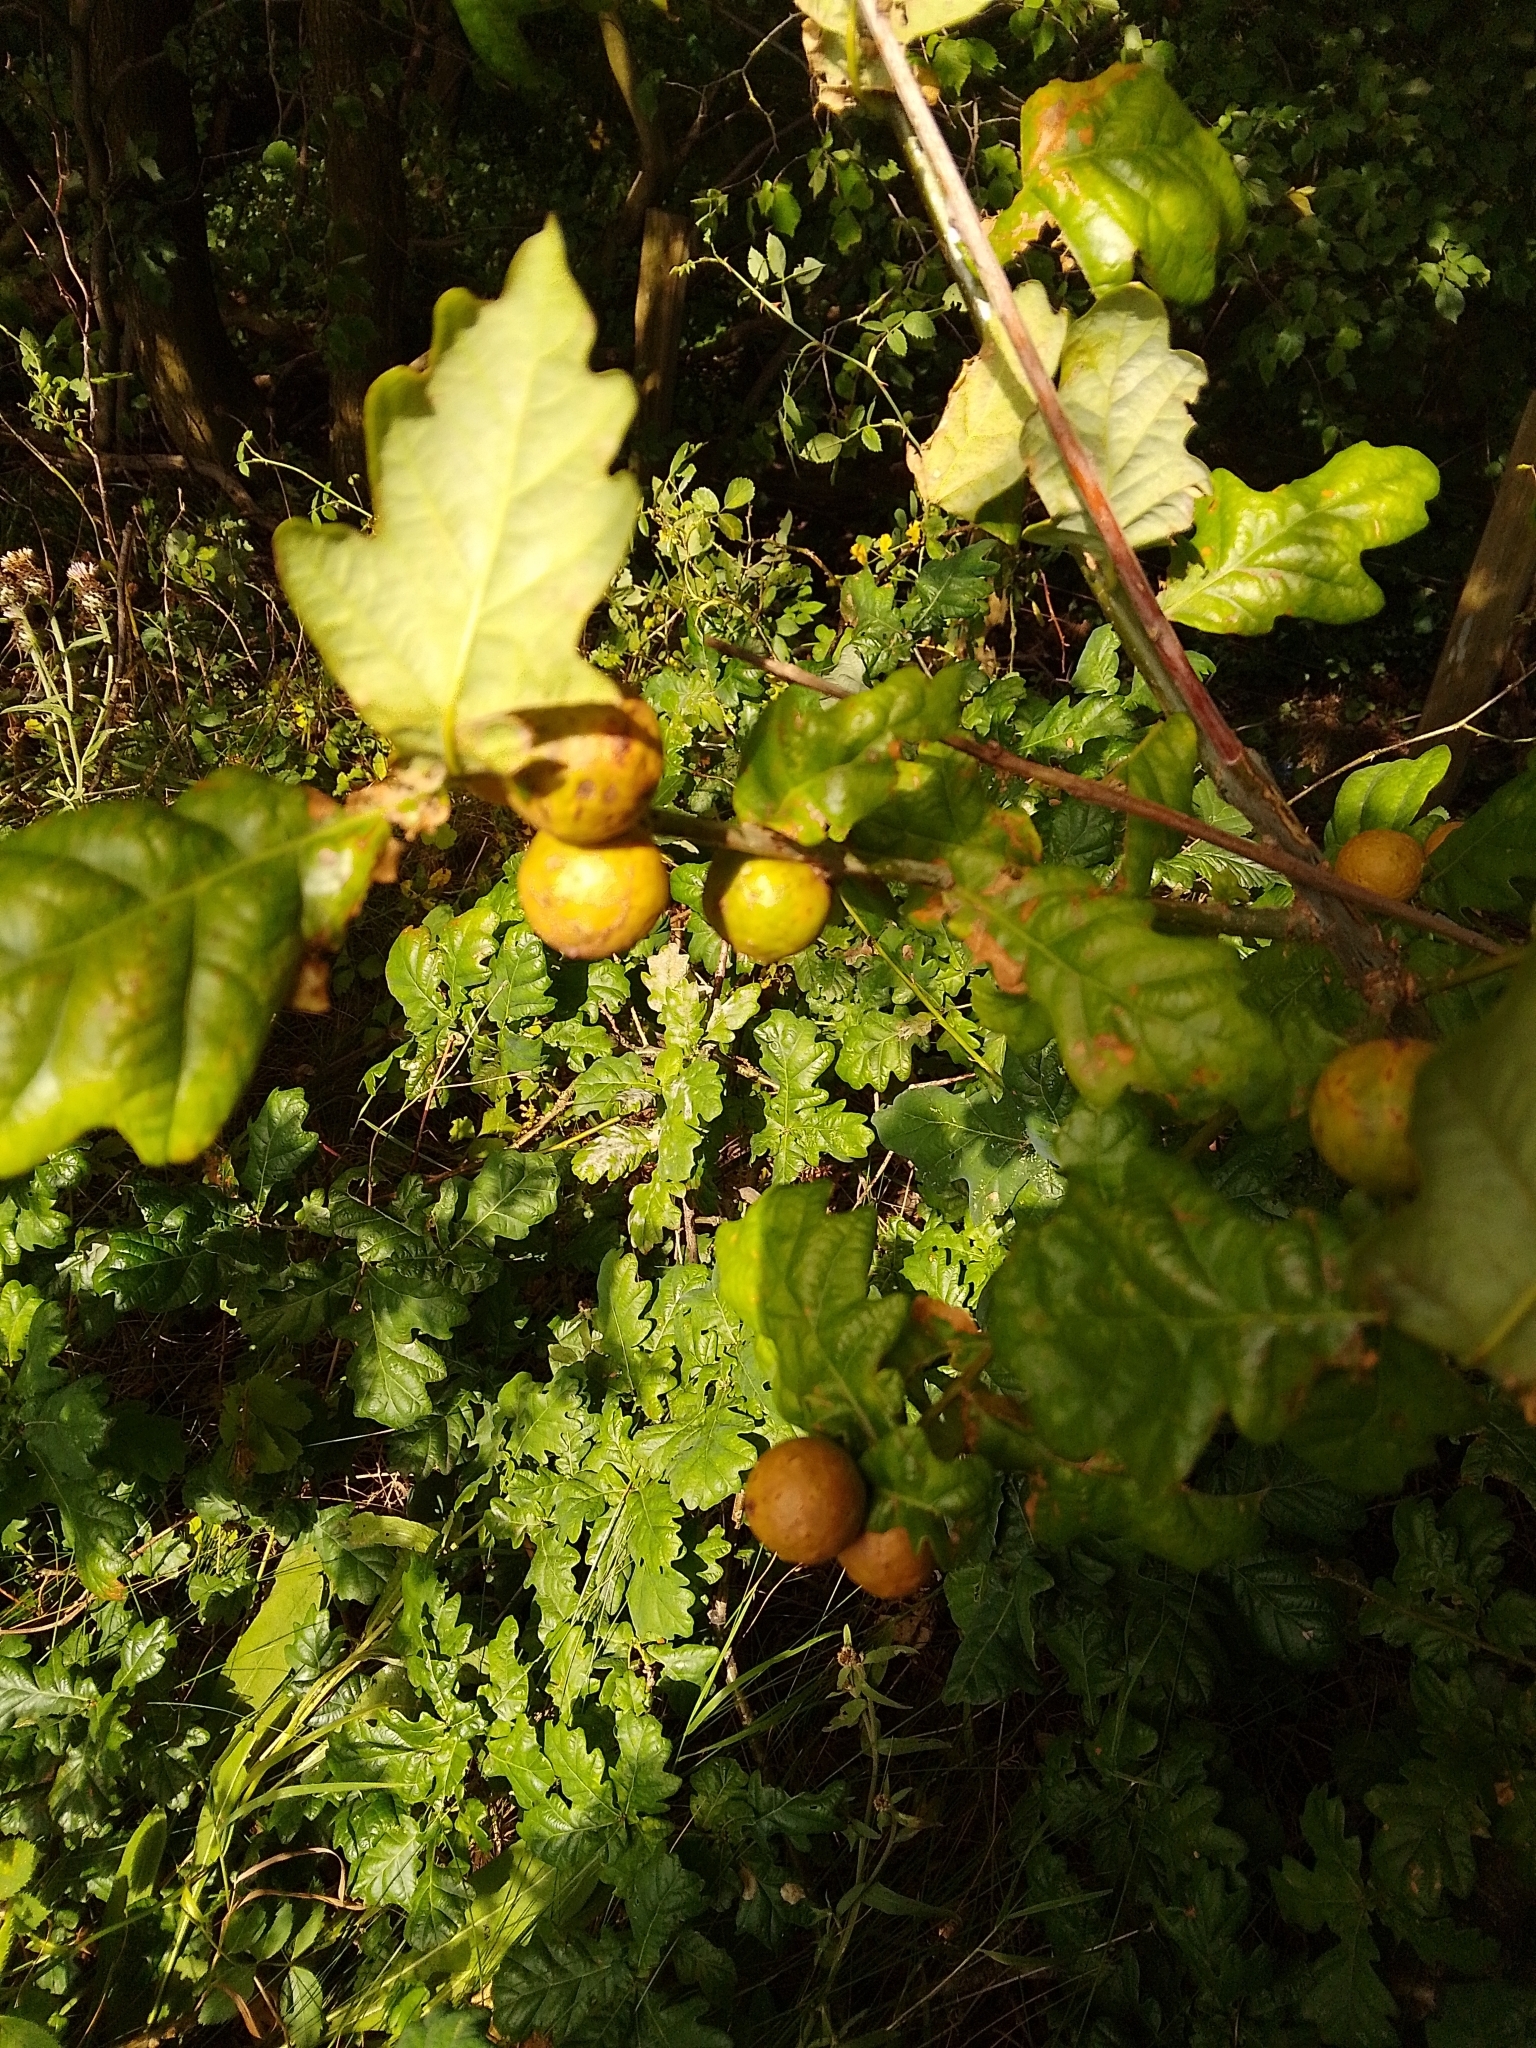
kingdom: Animalia
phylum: Arthropoda
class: Insecta
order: Hymenoptera
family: Cynipidae
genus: Andricus
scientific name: Andricus kollari
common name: Marble gall
